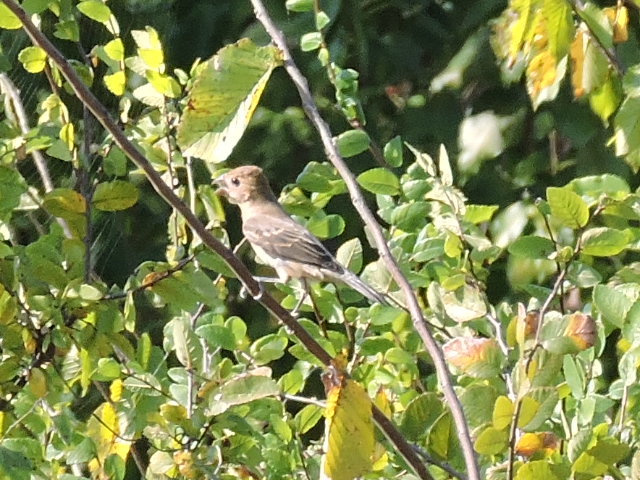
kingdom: Animalia
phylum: Chordata
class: Aves
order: Passeriformes
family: Cardinalidae
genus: Passerina
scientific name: Passerina caerulea
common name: Blue grosbeak
